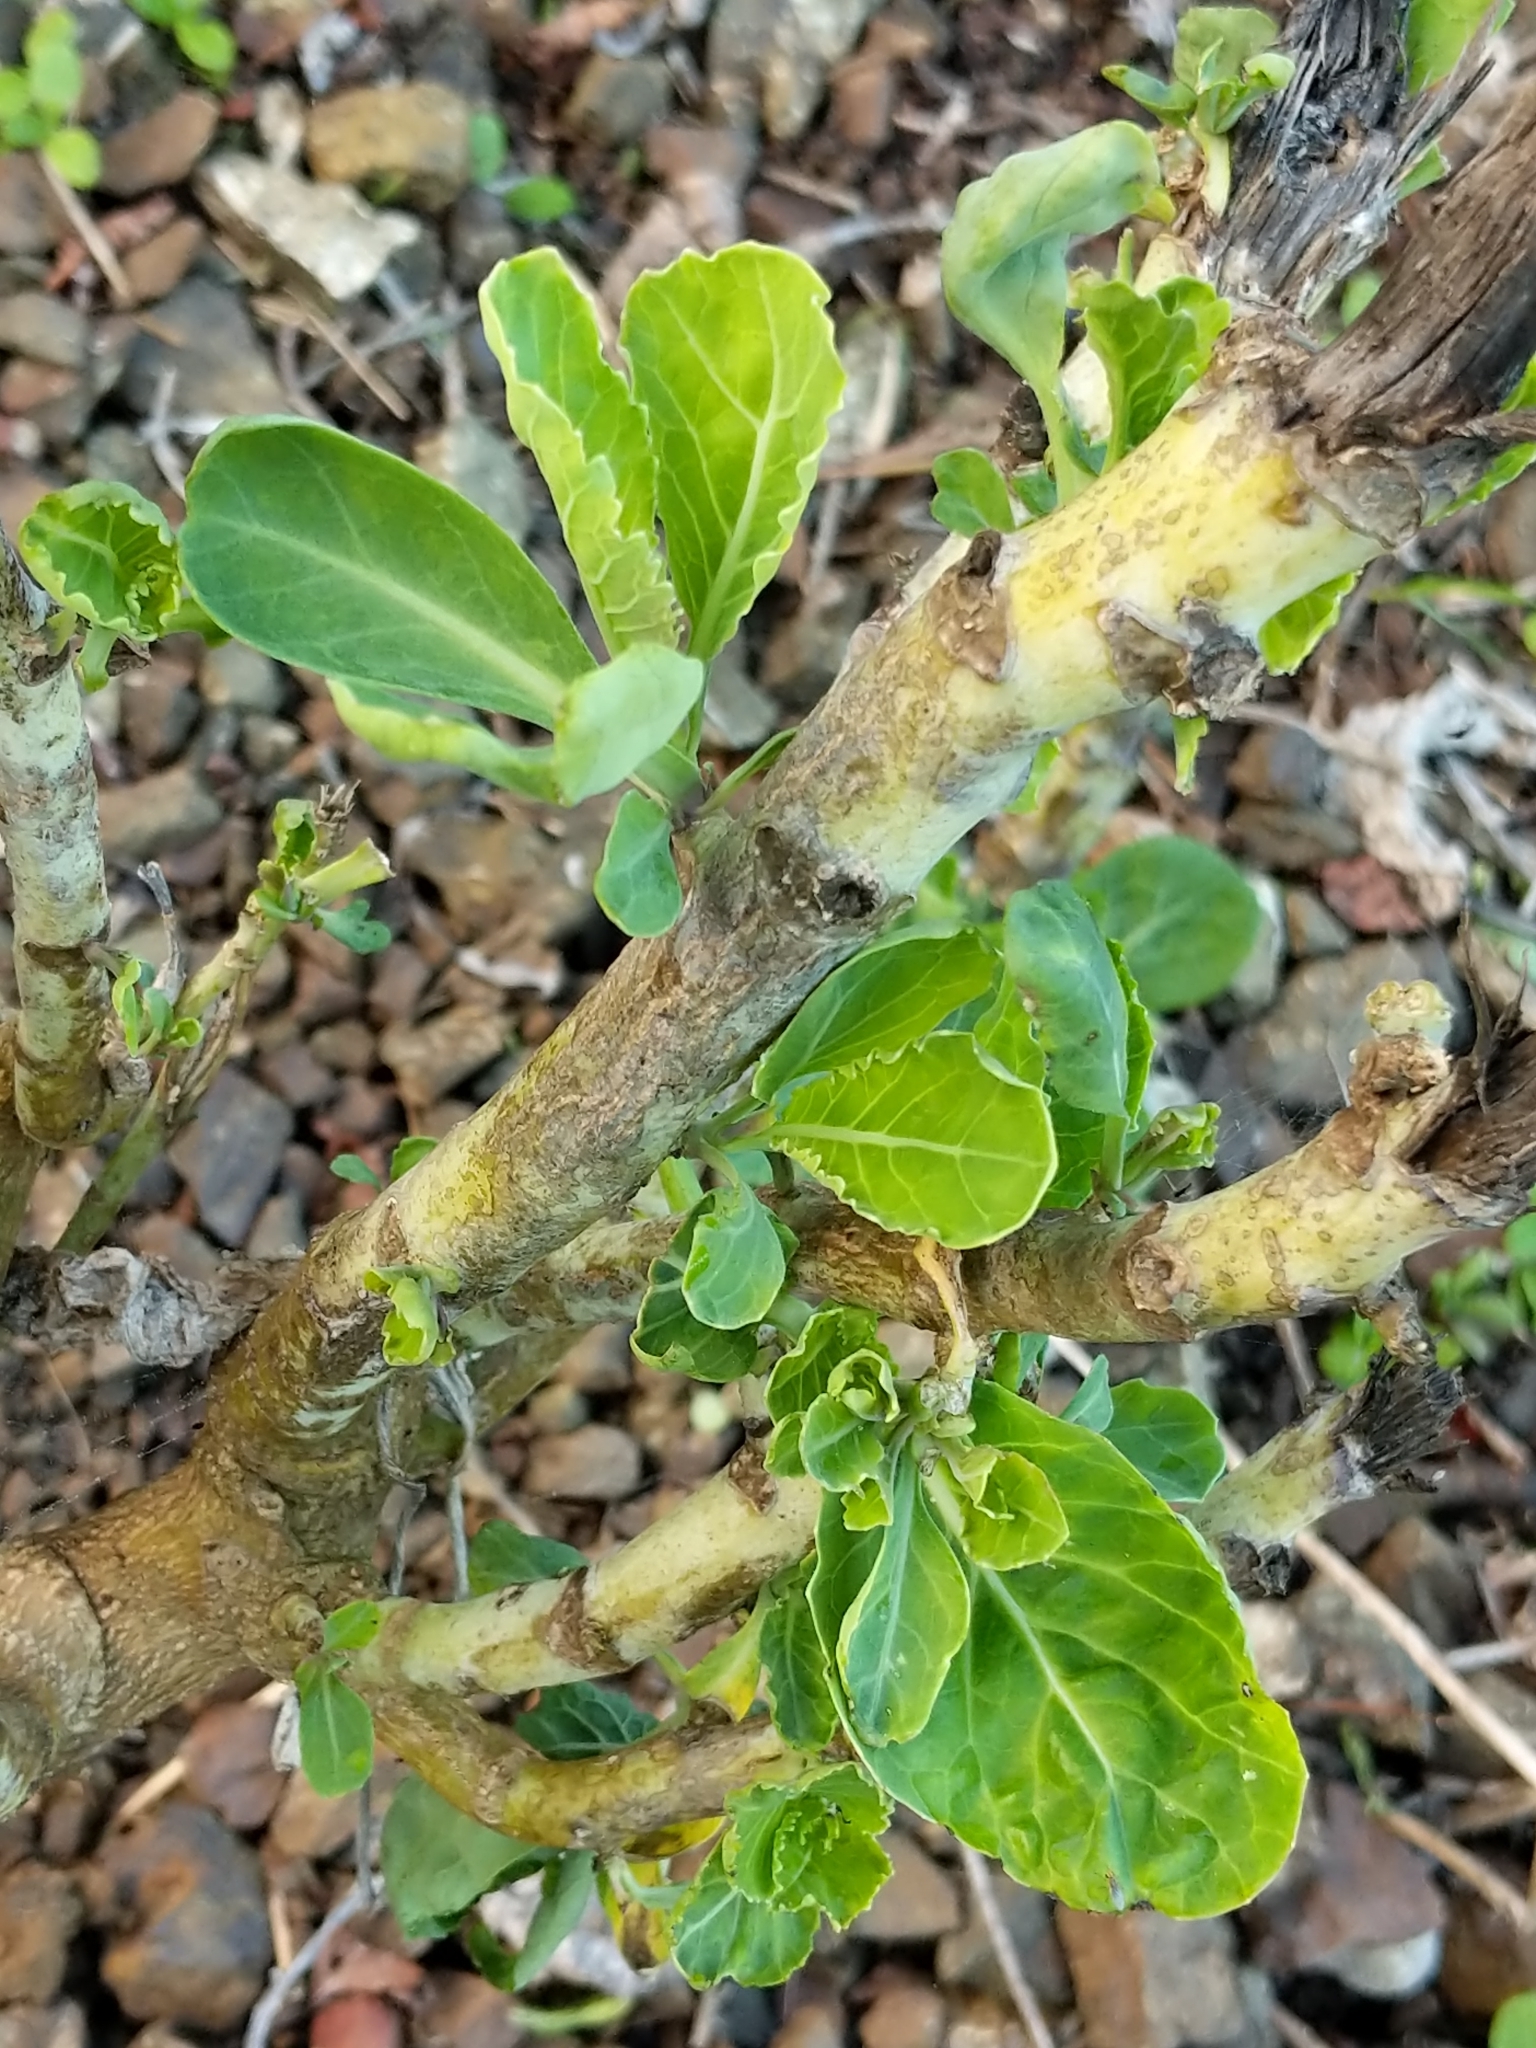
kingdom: Plantae
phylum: Tracheophyta
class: Magnoliopsida
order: Brassicales
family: Brassicaceae
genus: Brassica
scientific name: Brassica oleracea
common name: Cabbage
